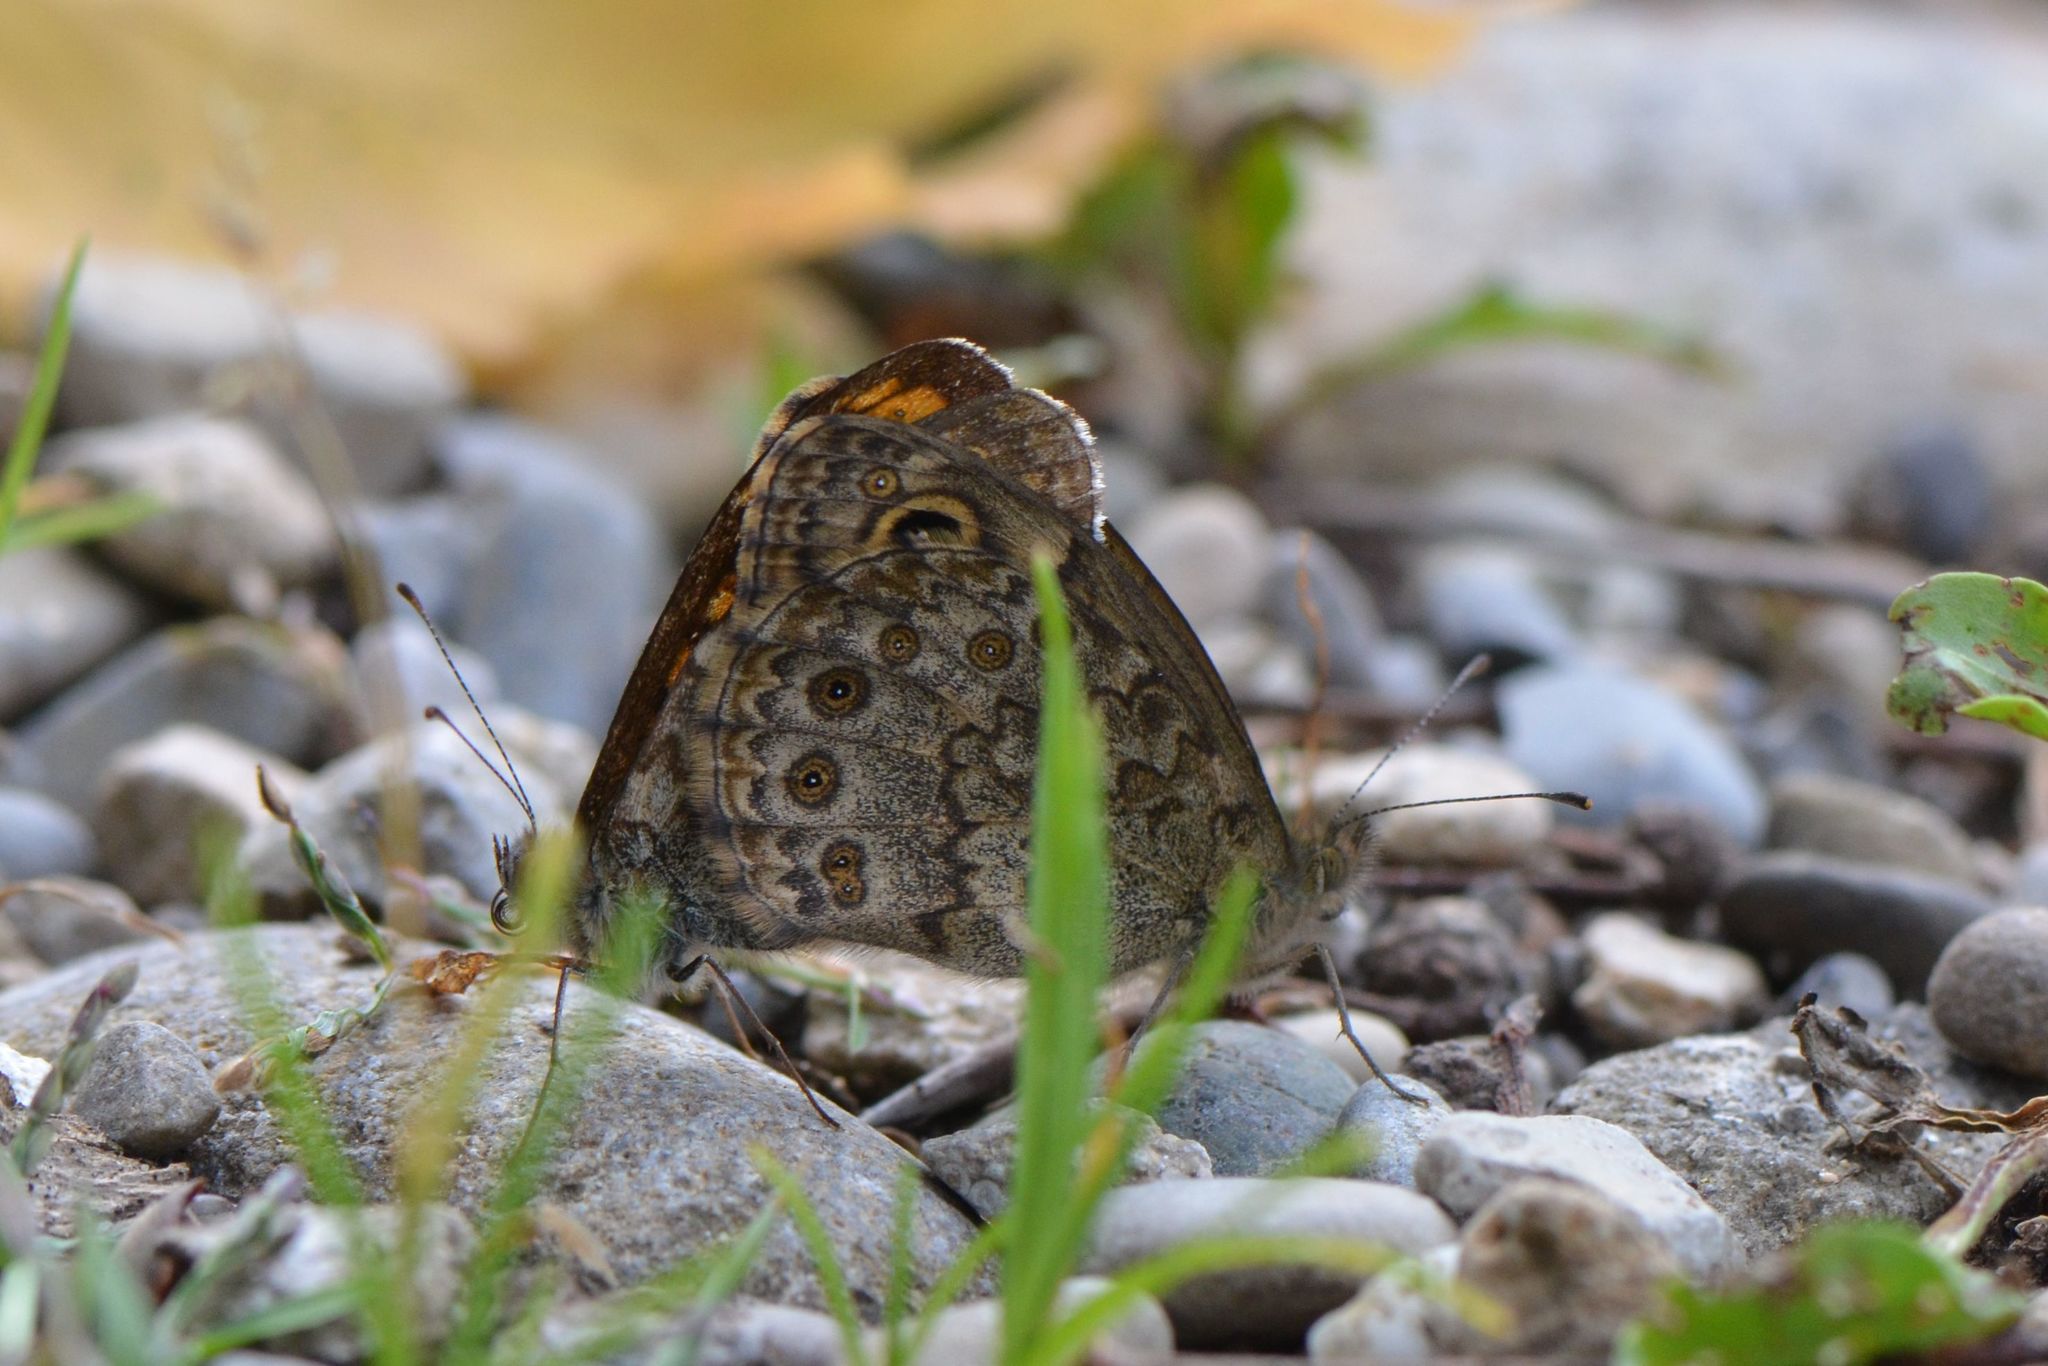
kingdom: Animalia
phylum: Arthropoda
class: Insecta
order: Lepidoptera
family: Nymphalidae
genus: Pararge
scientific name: Pararge Lasiommata megera
